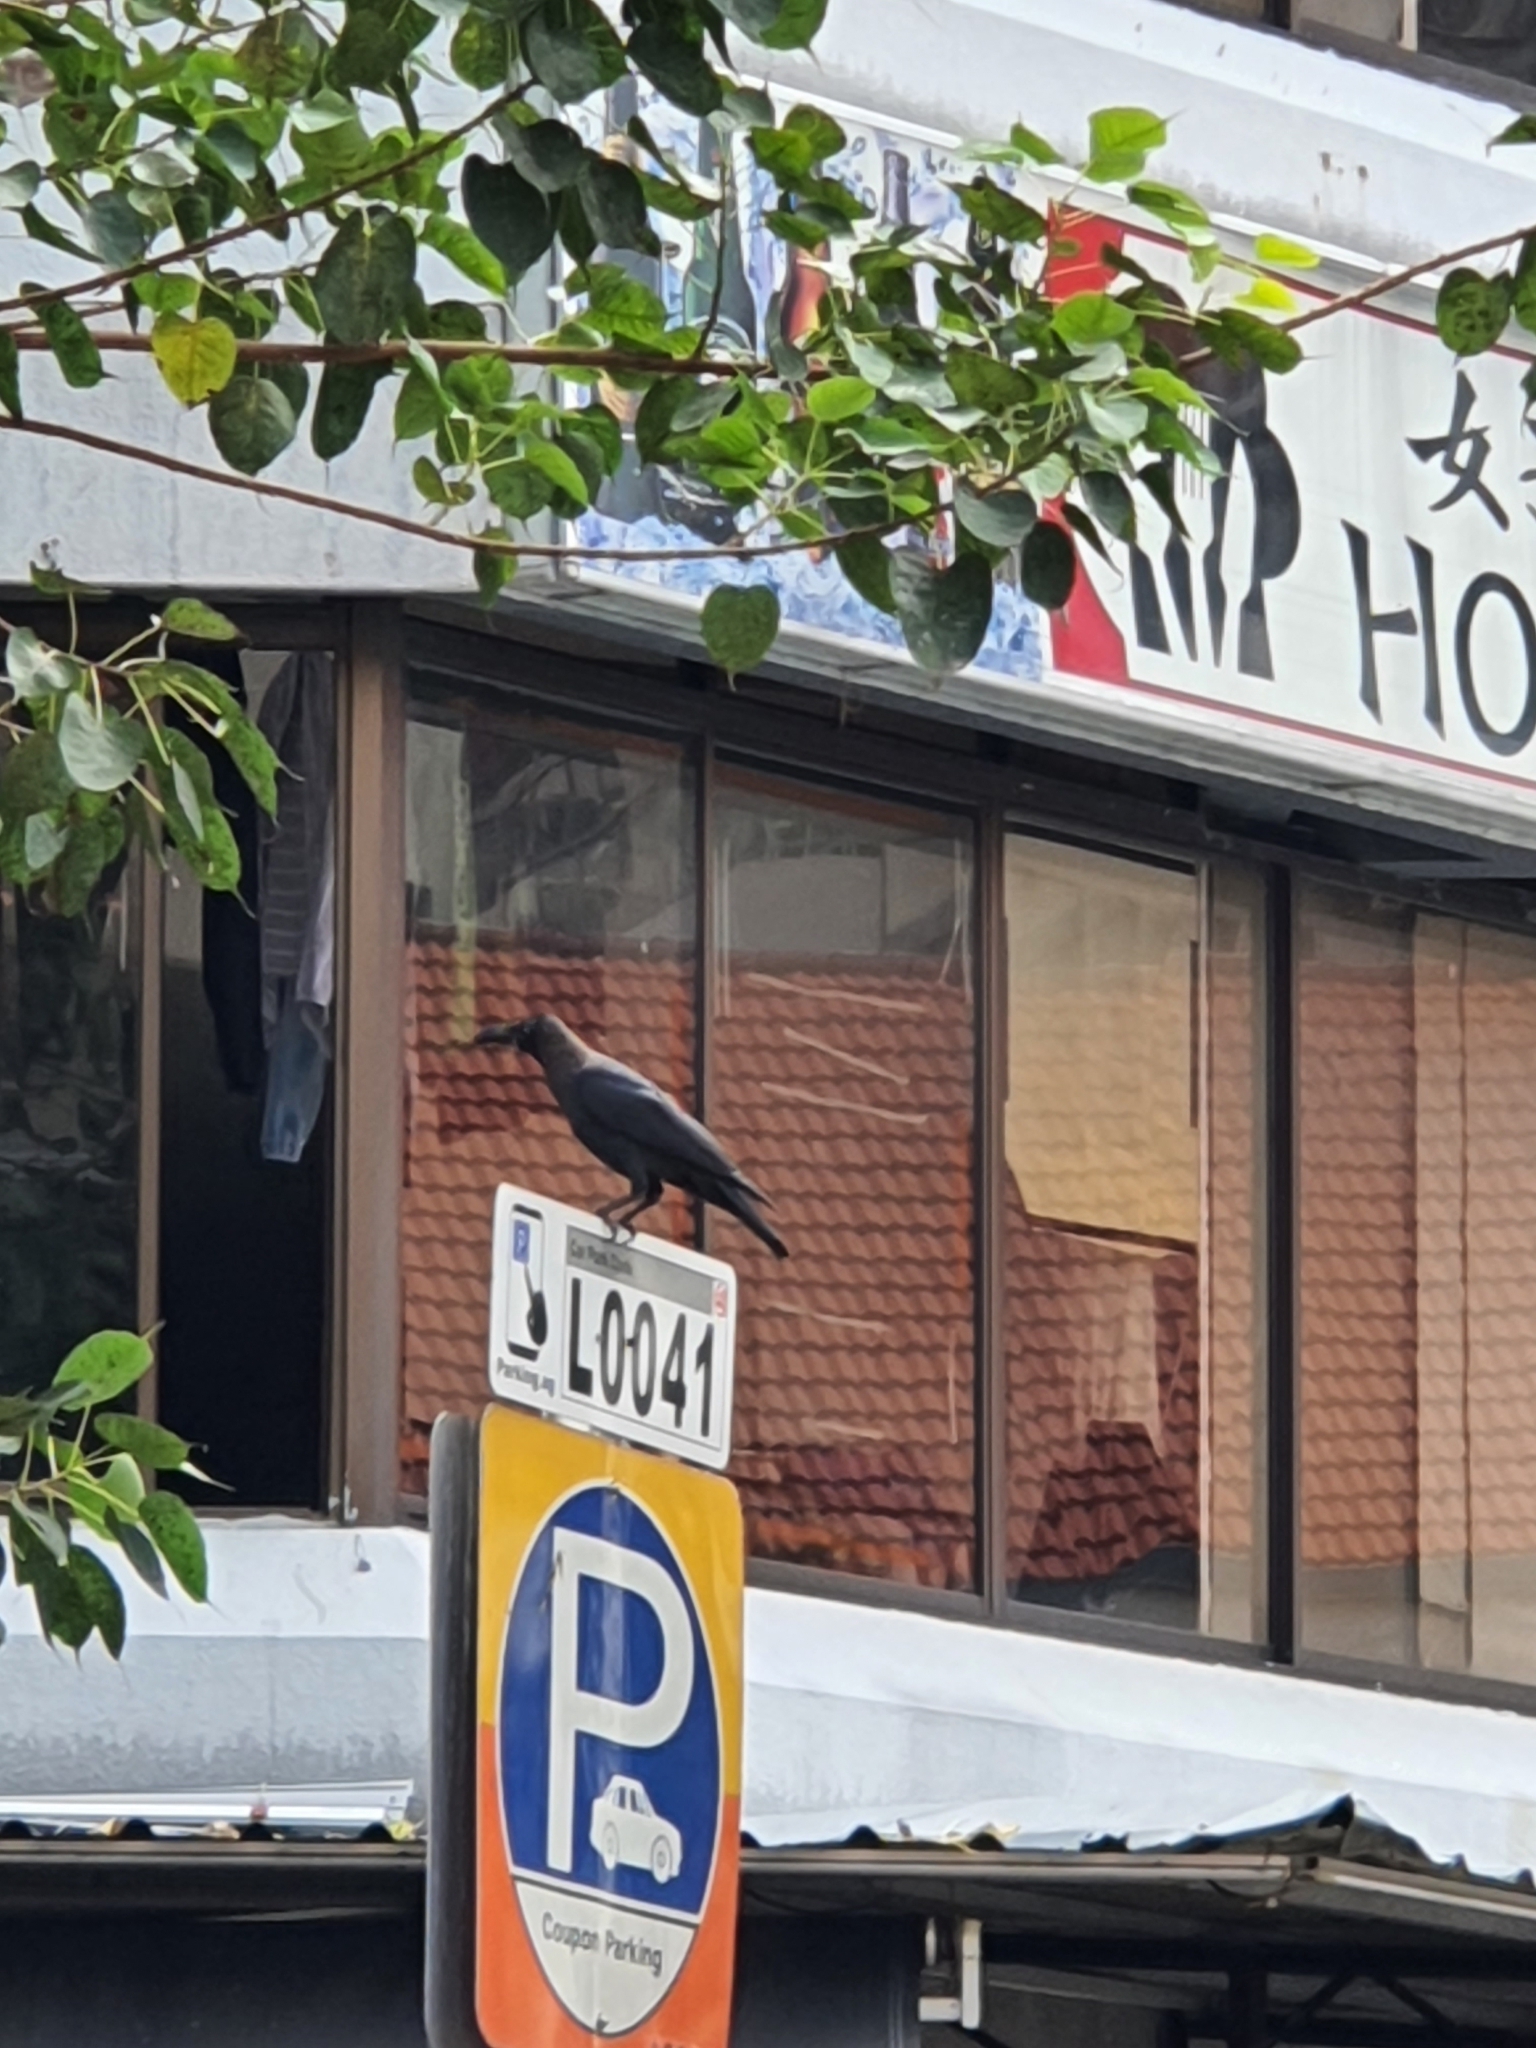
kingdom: Animalia
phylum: Chordata
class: Aves
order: Passeriformes
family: Corvidae
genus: Corvus
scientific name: Corvus splendens
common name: House crow
